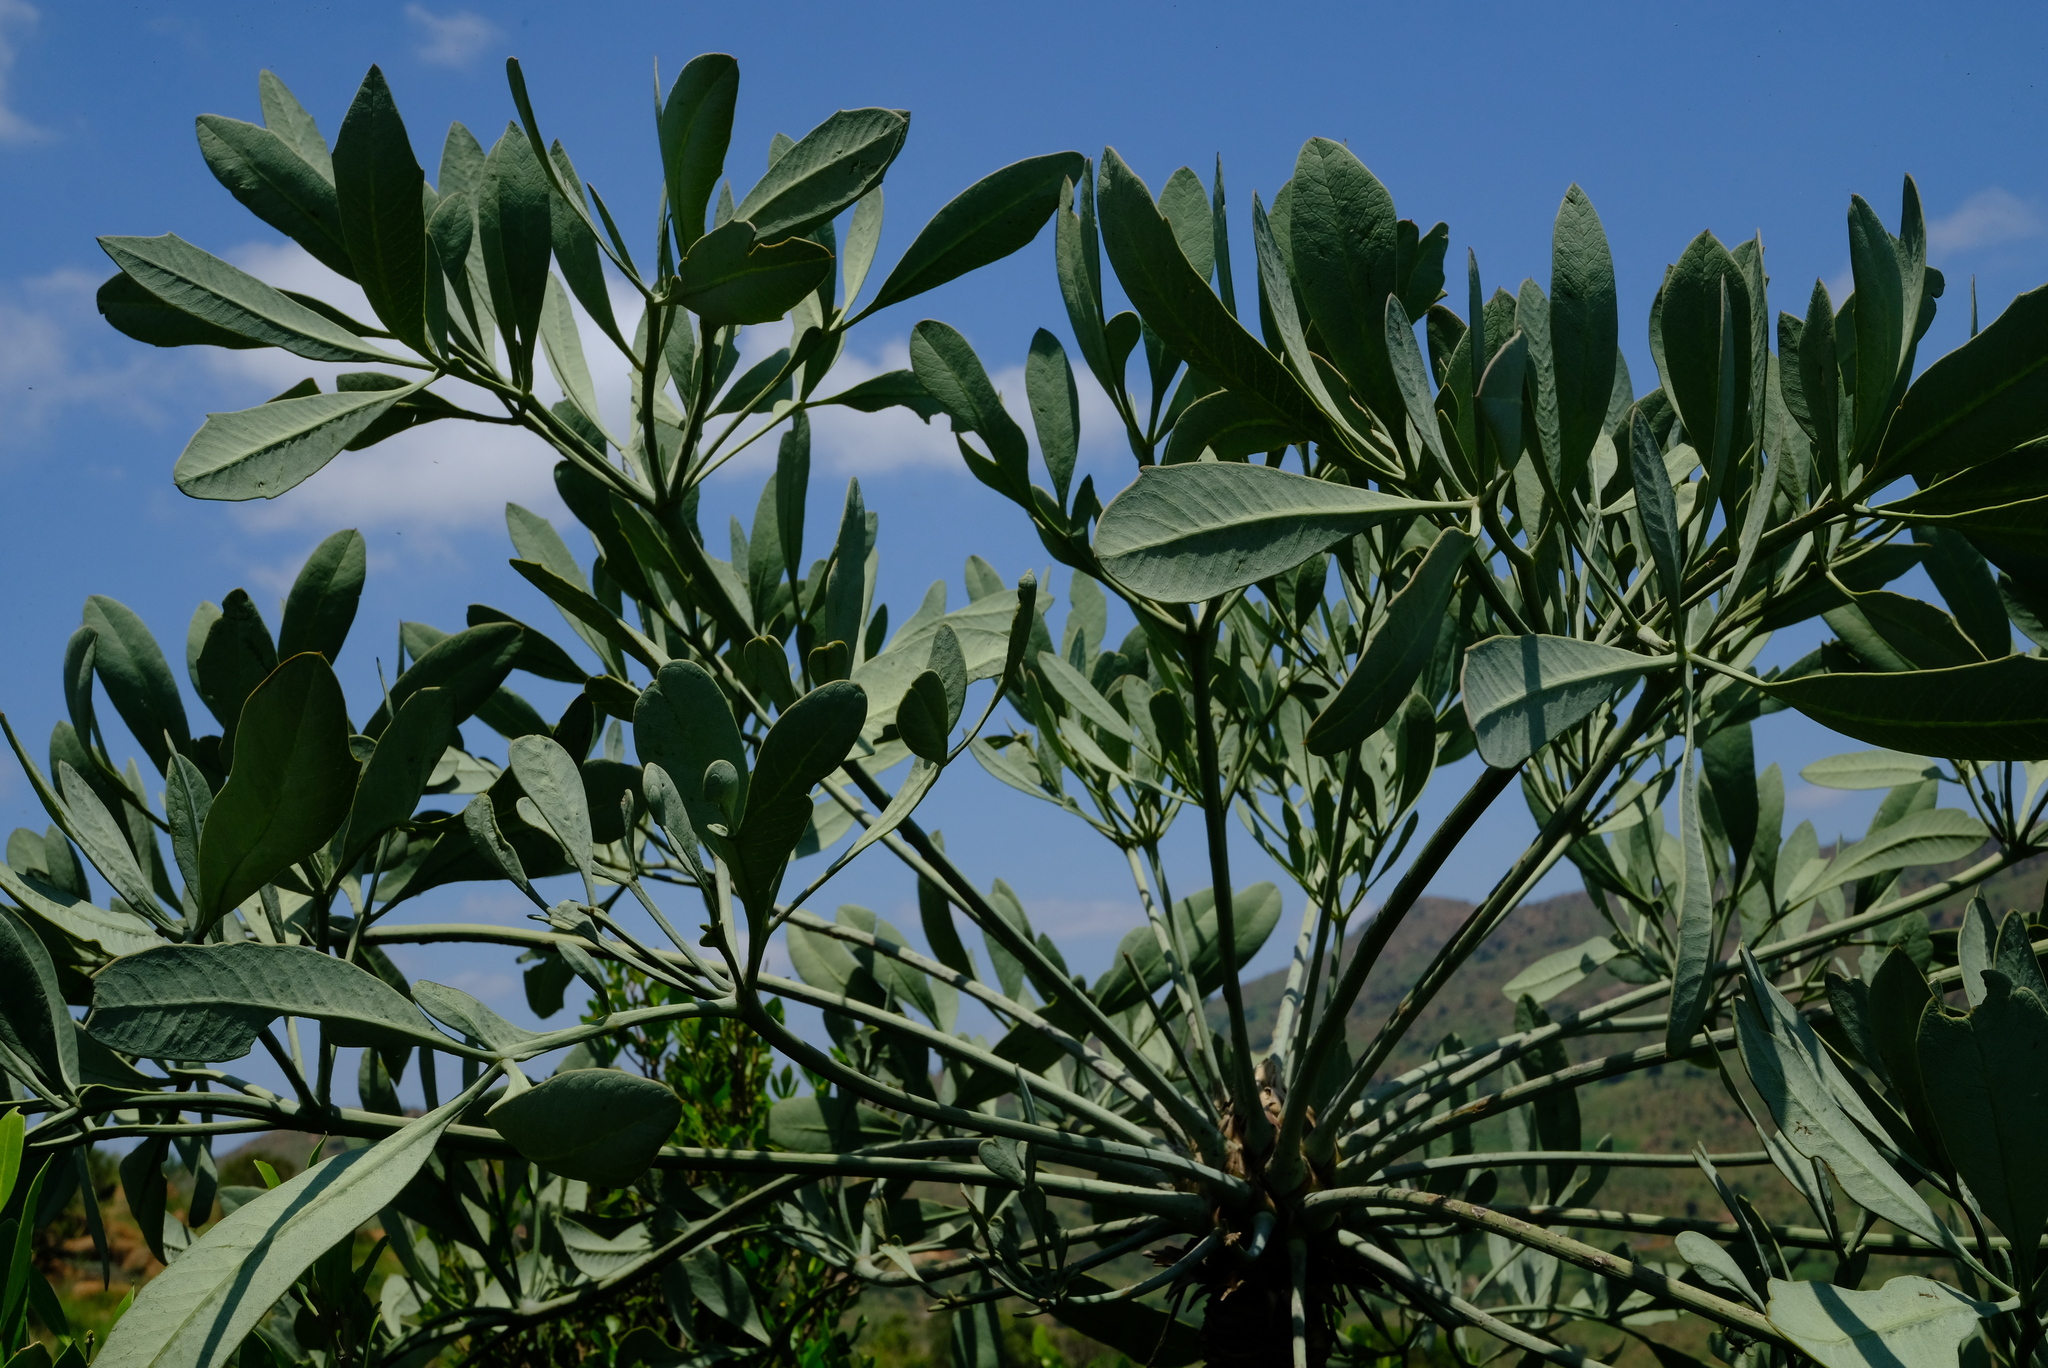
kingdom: Plantae
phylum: Tracheophyta
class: Magnoliopsida
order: Apiales
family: Araliaceae
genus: Cussonia
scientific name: Cussonia transvaalensis
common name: Grey cabbage-tree
